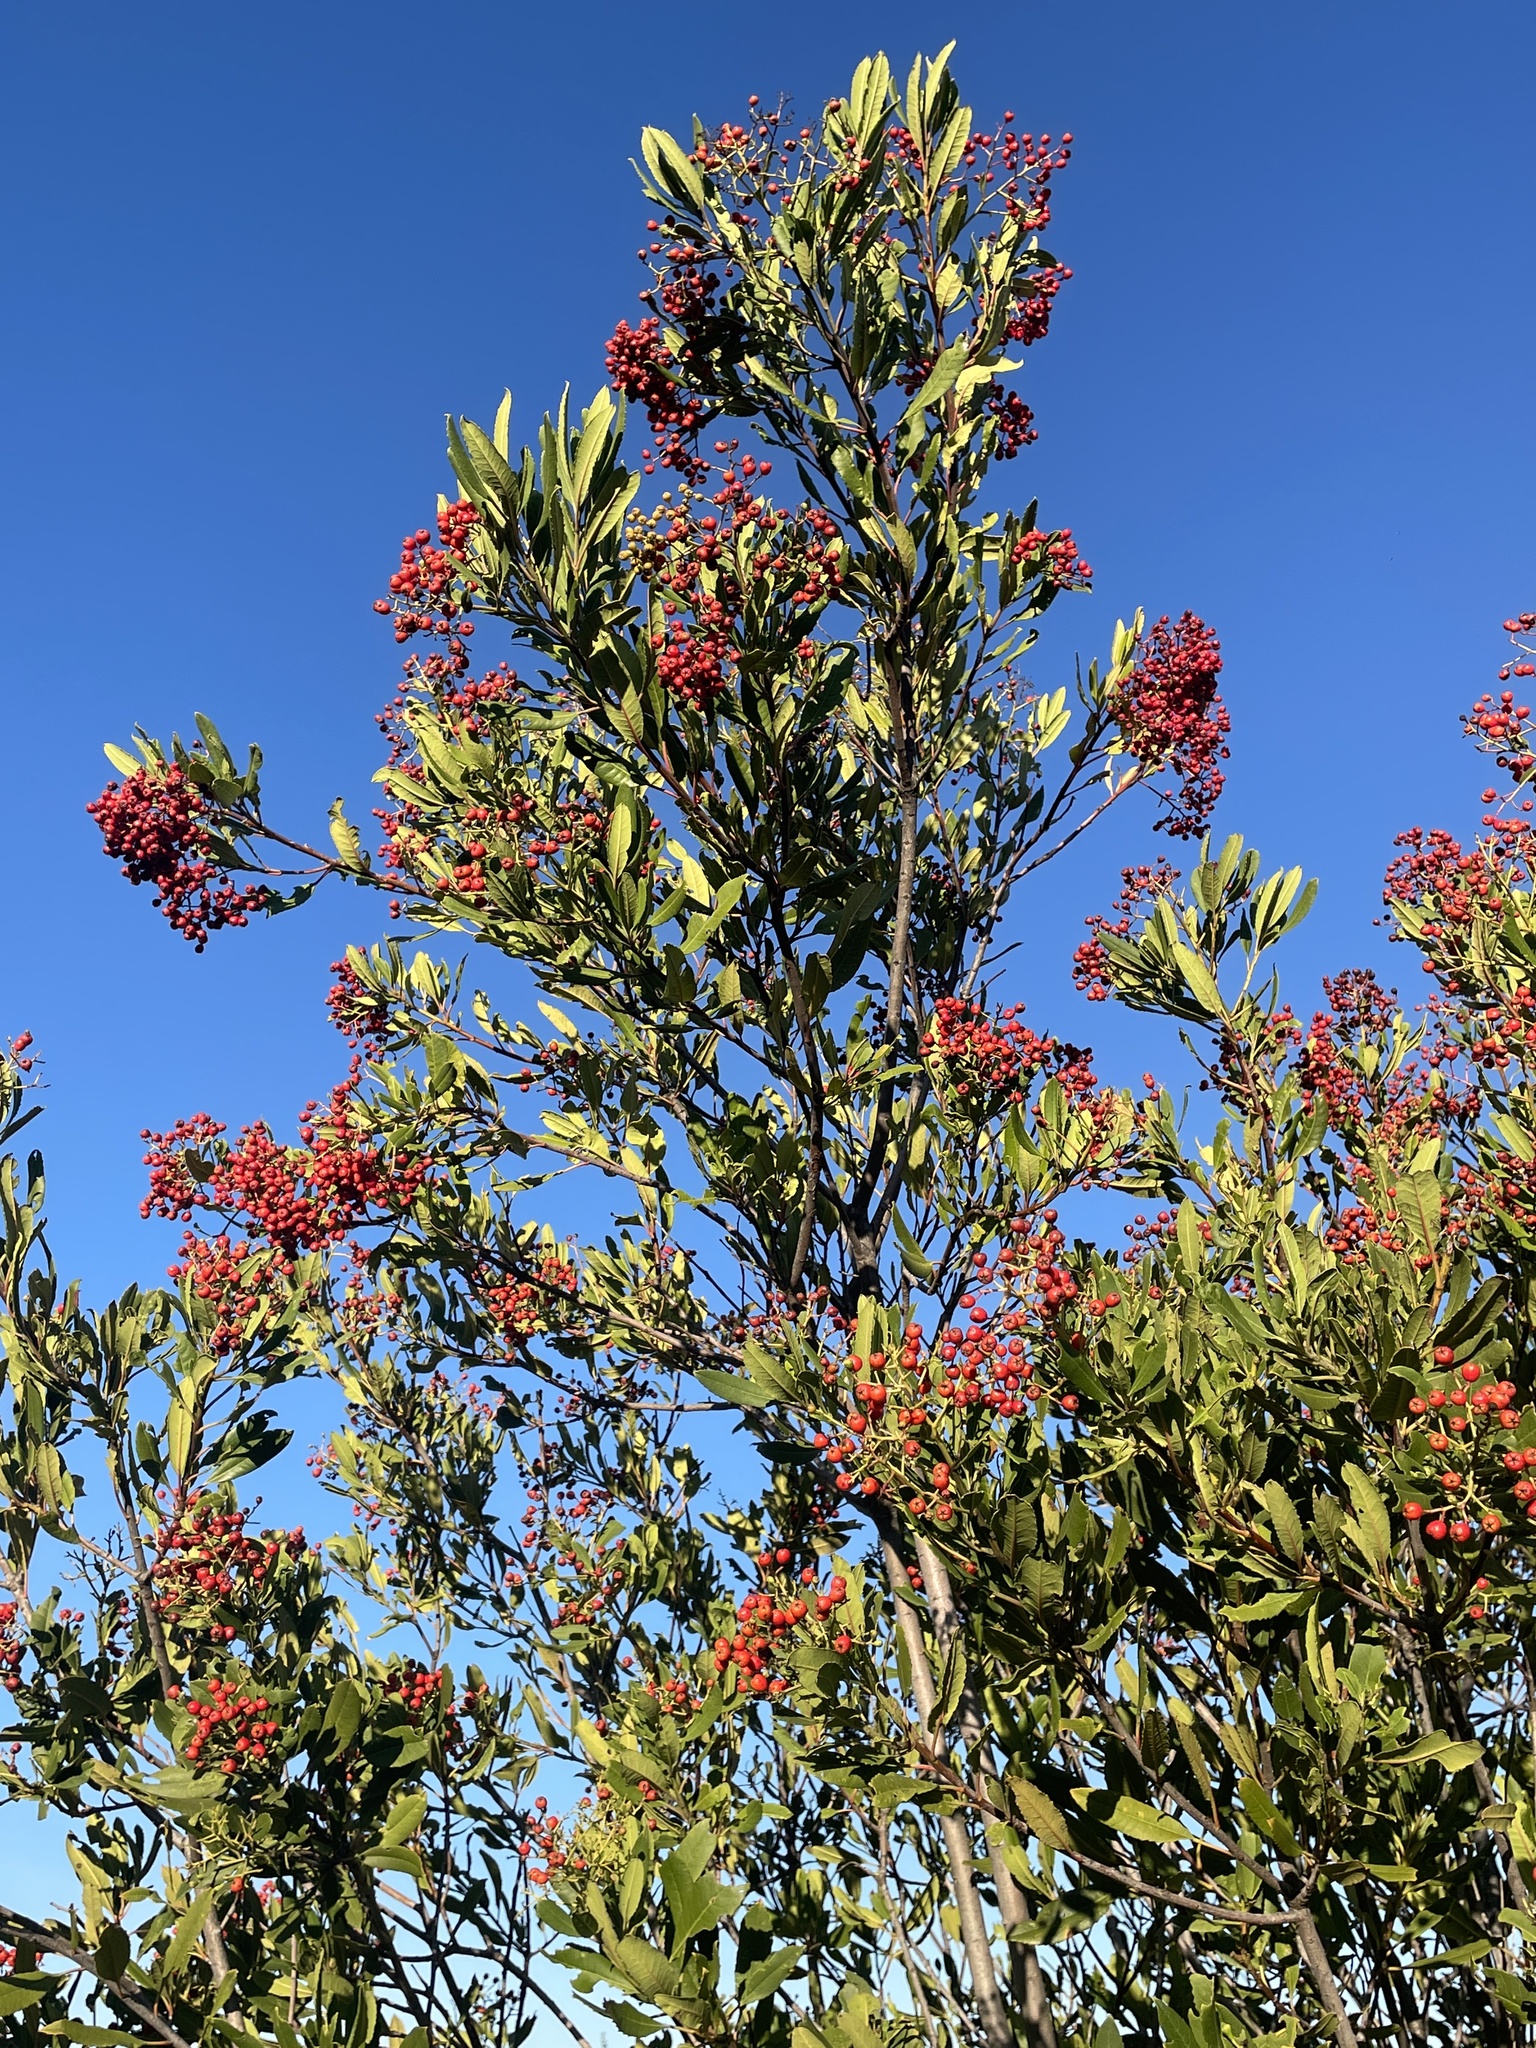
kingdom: Plantae
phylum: Tracheophyta
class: Magnoliopsida
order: Rosales
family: Rosaceae
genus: Heteromeles
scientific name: Heteromeles arbutifolia
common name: California-holly
